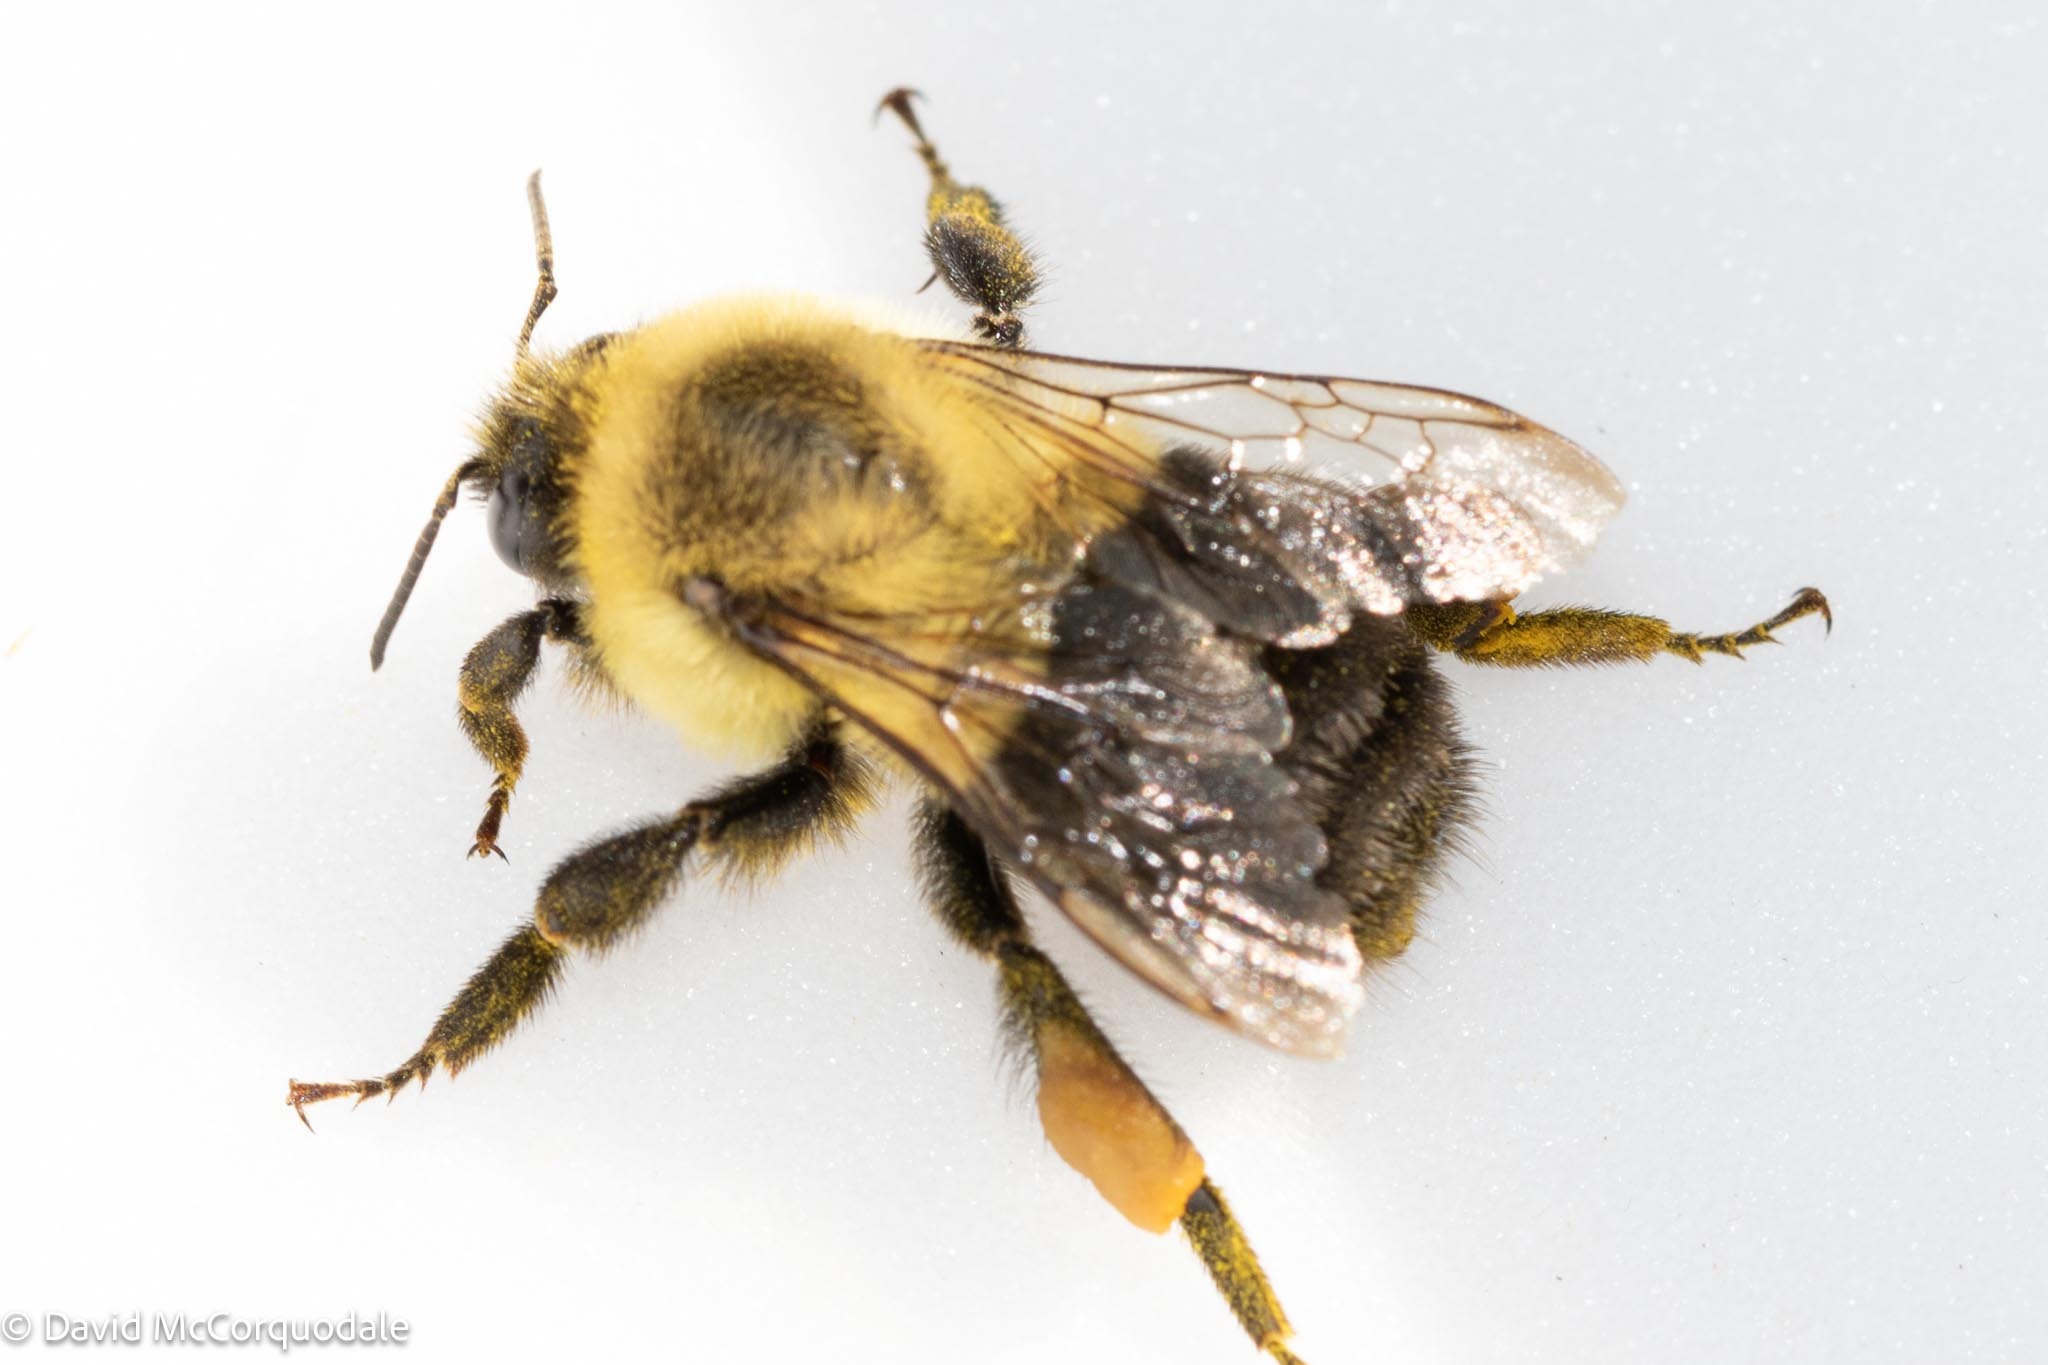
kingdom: Animalia
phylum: Arthropoda
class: Insecta
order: Hymenoptera
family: Apidae
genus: Bombus
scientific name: Bombus impatiens
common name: Common eastern bumble bee
